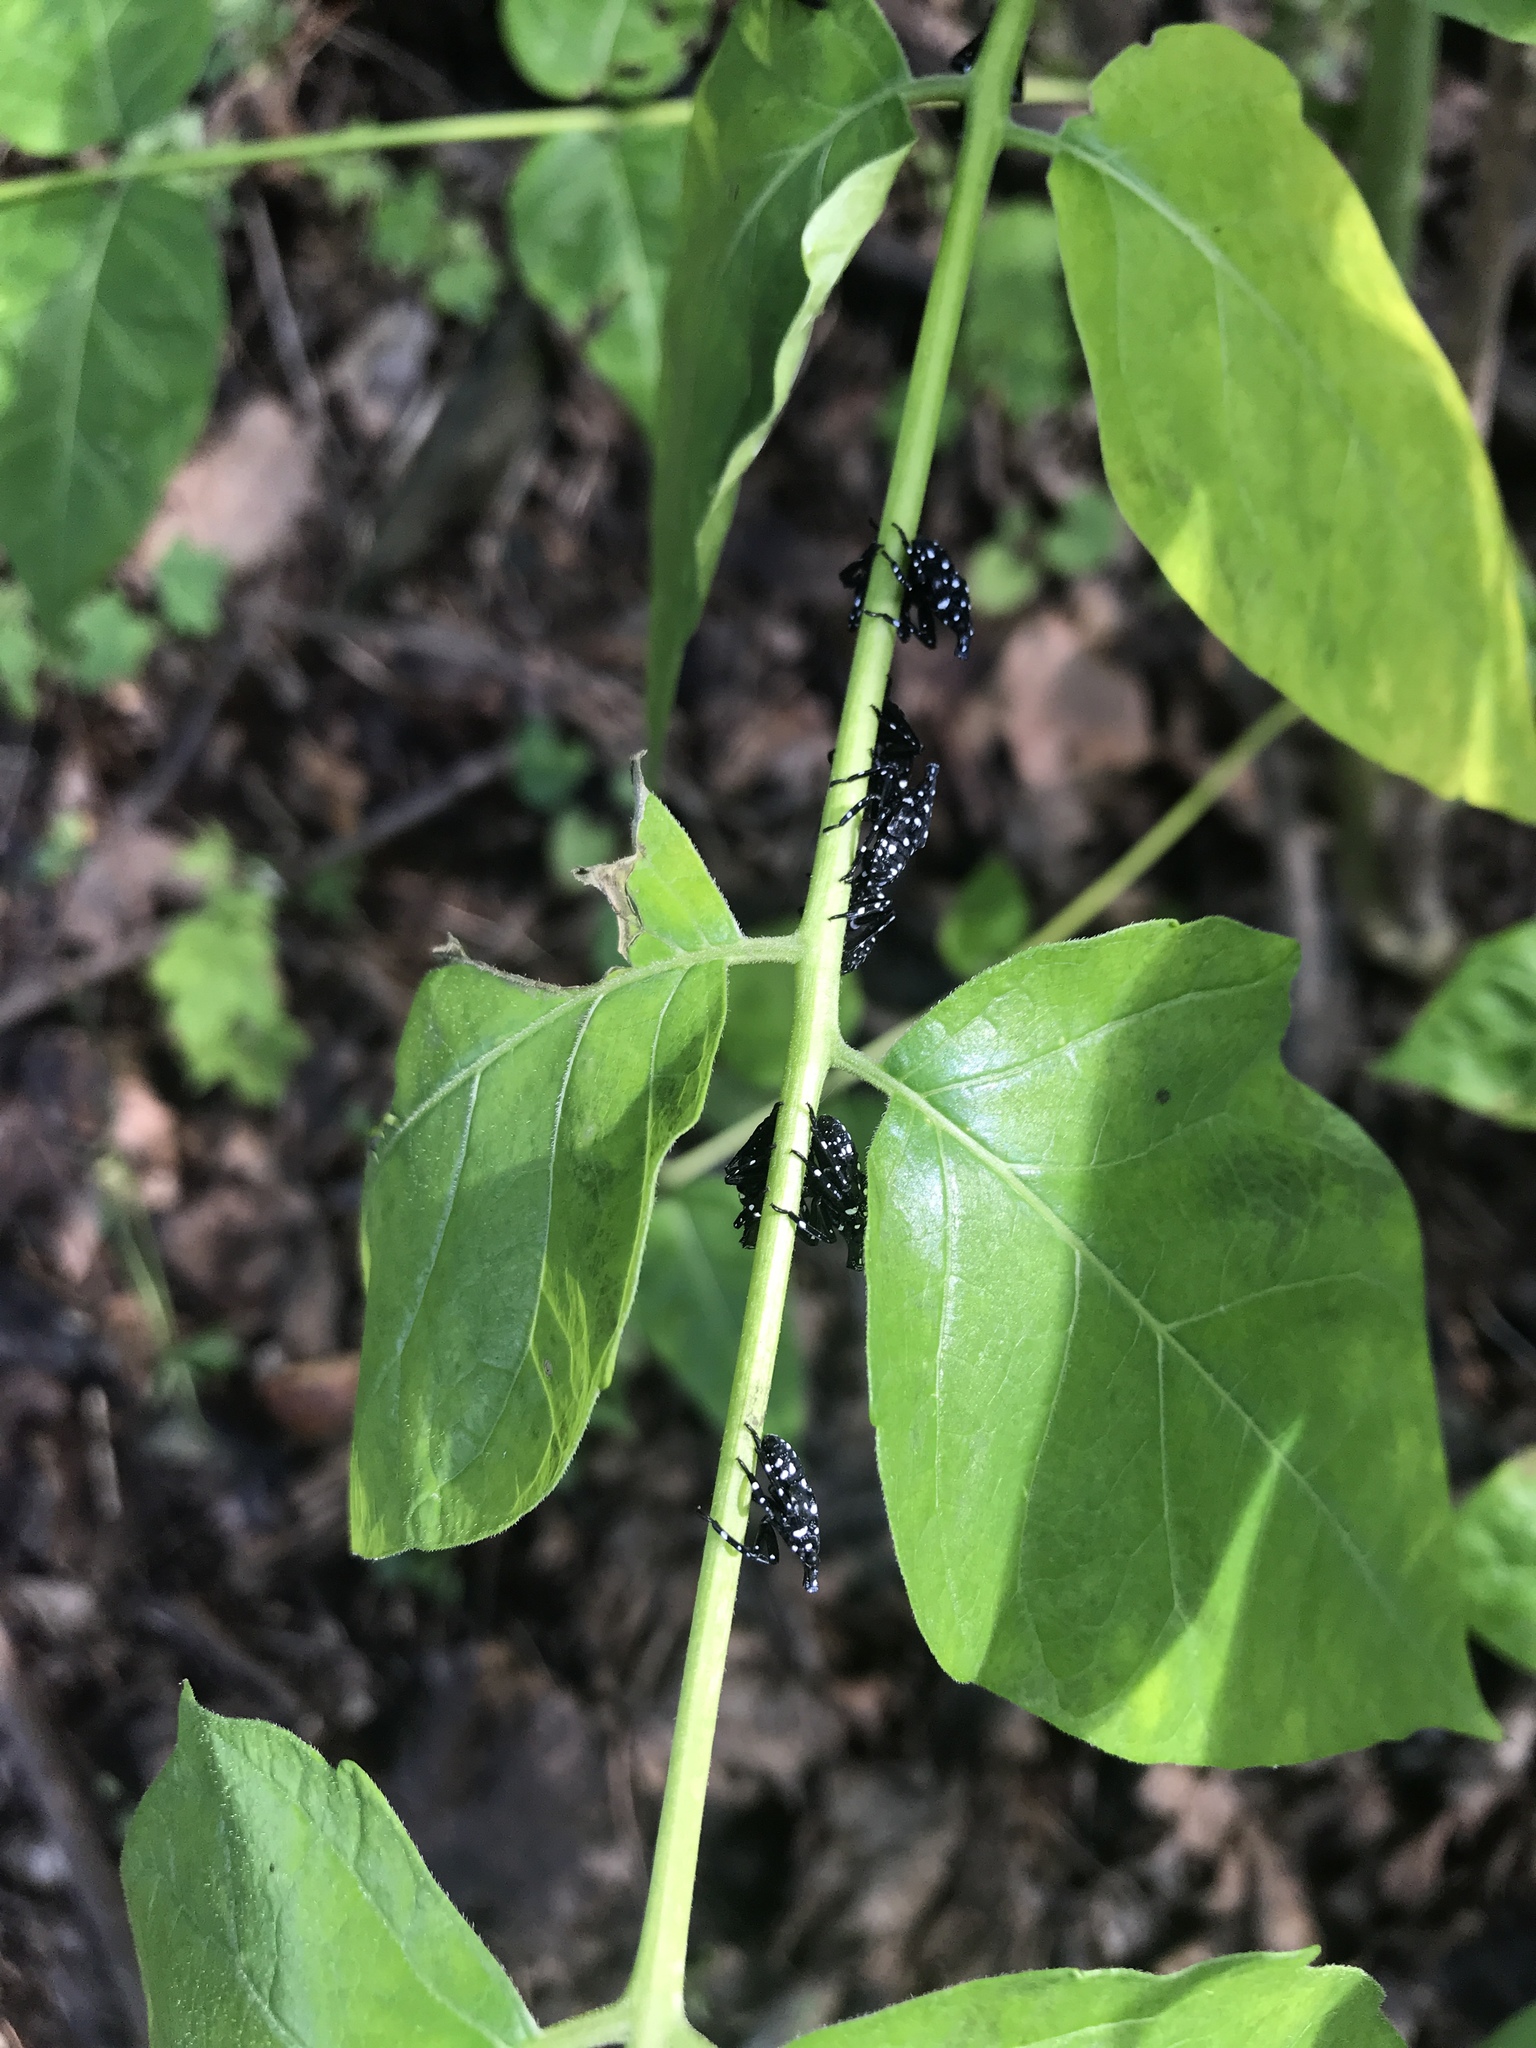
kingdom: Animalia
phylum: Arthropoda
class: Insecta
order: Hemiptera
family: Fulgoridae
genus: Lycorma
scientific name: Lycorma delicatula
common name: Spotted lanternfly
